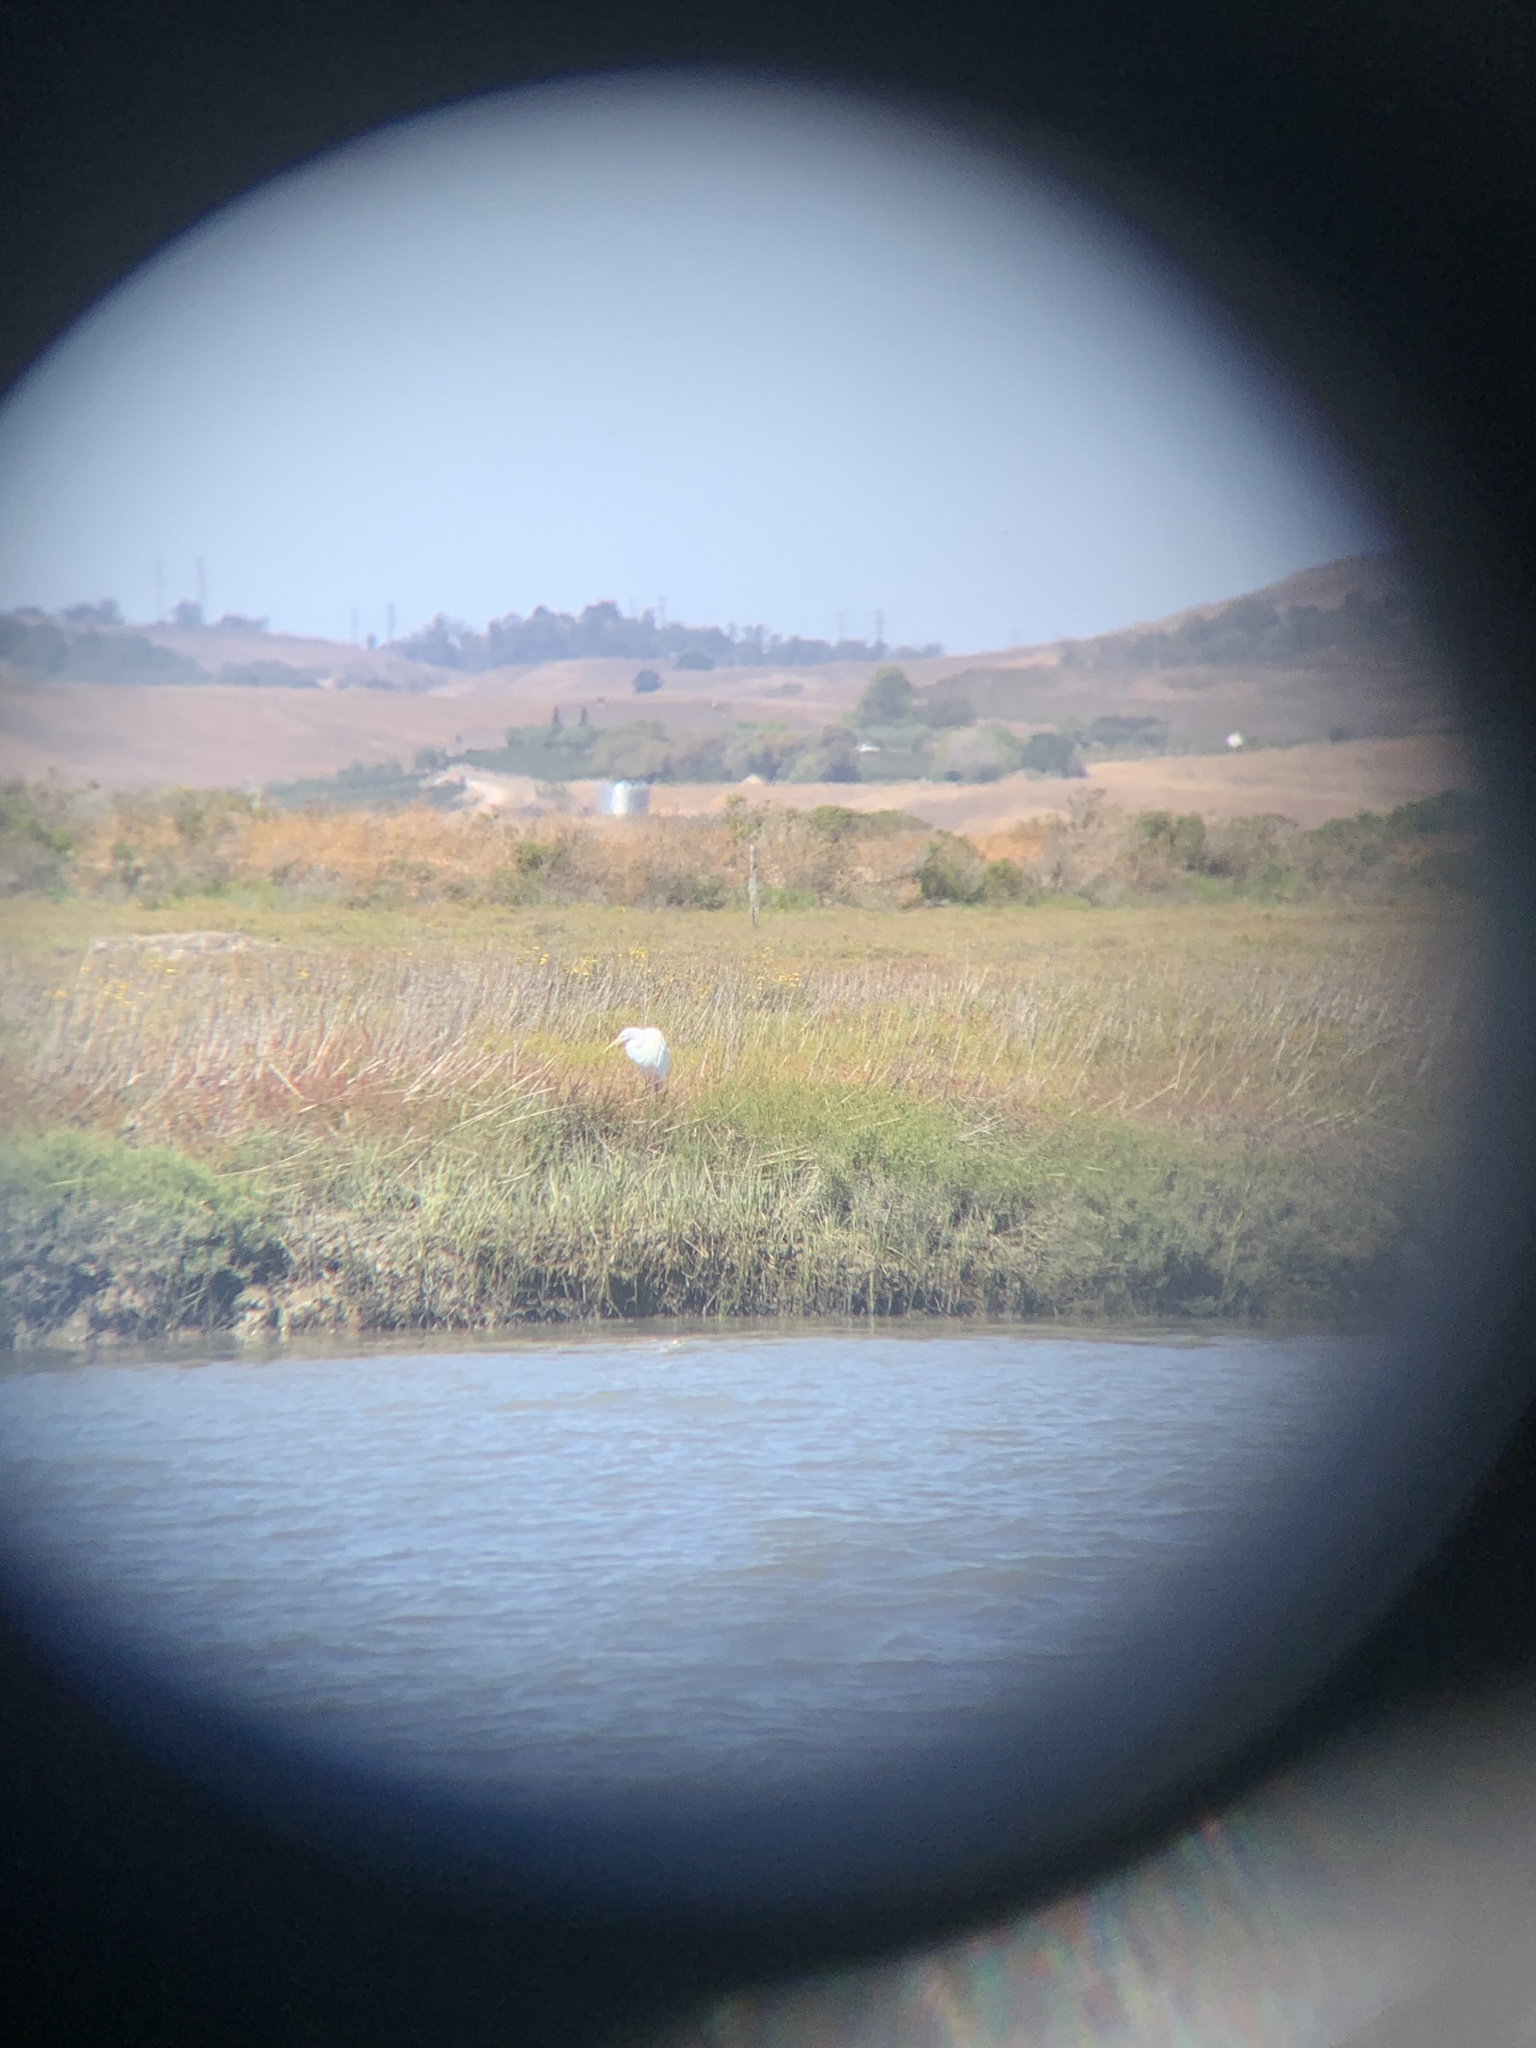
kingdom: Animalia
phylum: Chordata
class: Aves
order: Pelecaniformes
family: Ardeidae
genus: Ardea
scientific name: Ardea alba
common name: Great egret
